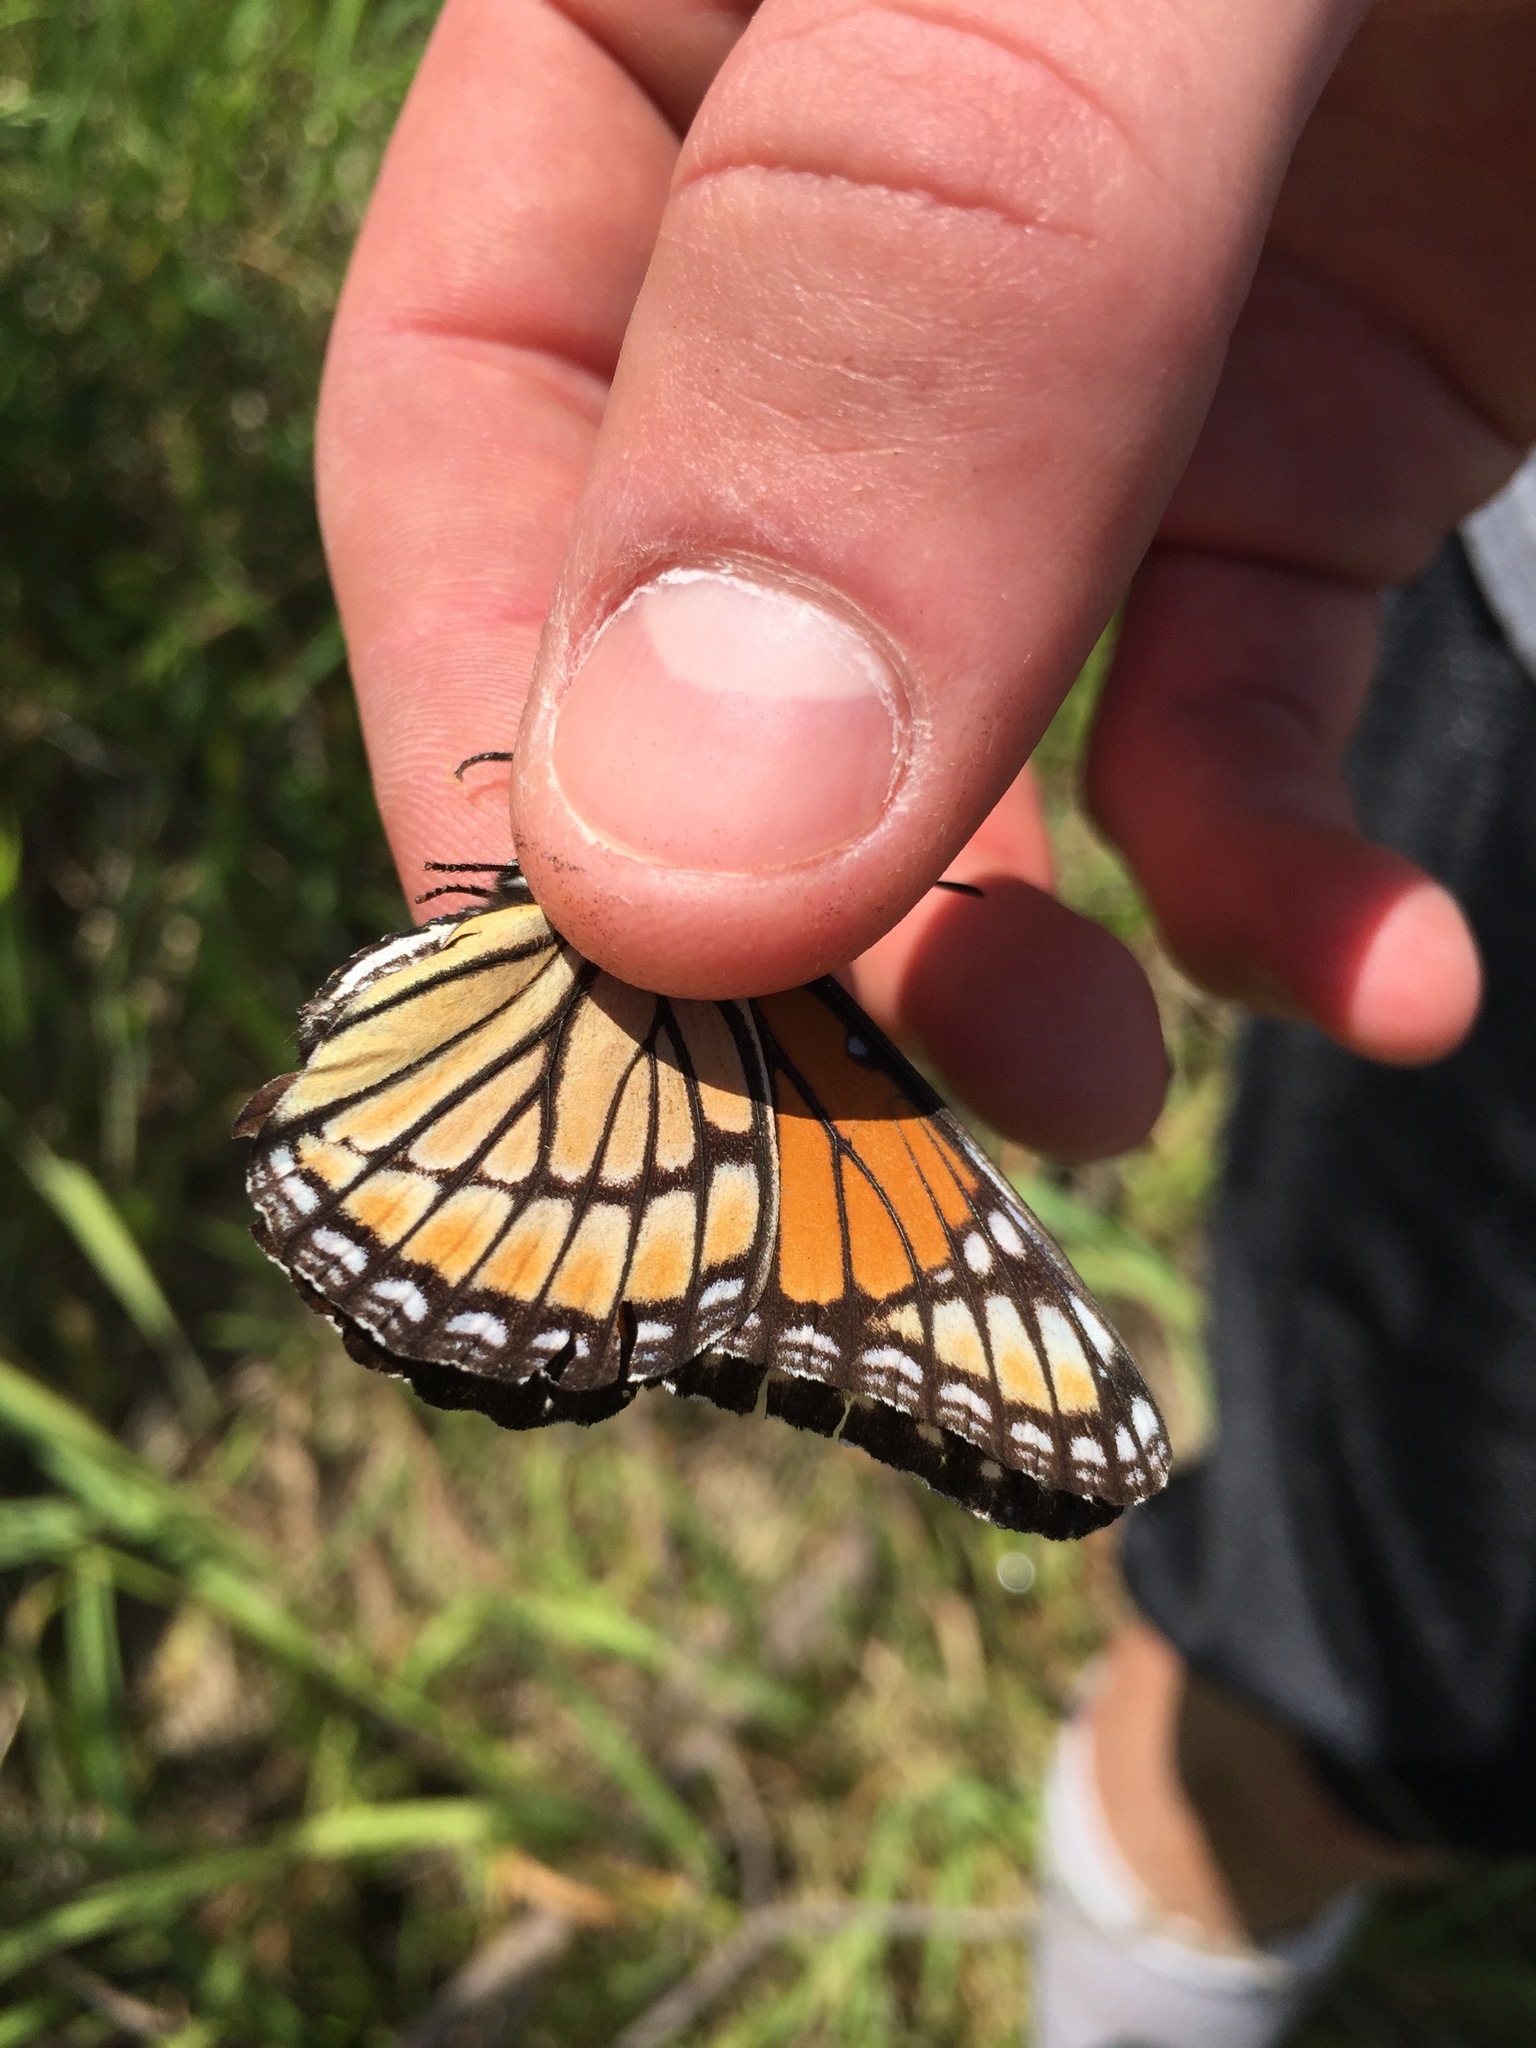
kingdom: Animalia
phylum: Arthropoda
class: Insecta
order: Lepidoptera
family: Nymphalidae
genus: Limenitis
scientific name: Limenitis archippus
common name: Viceroy
